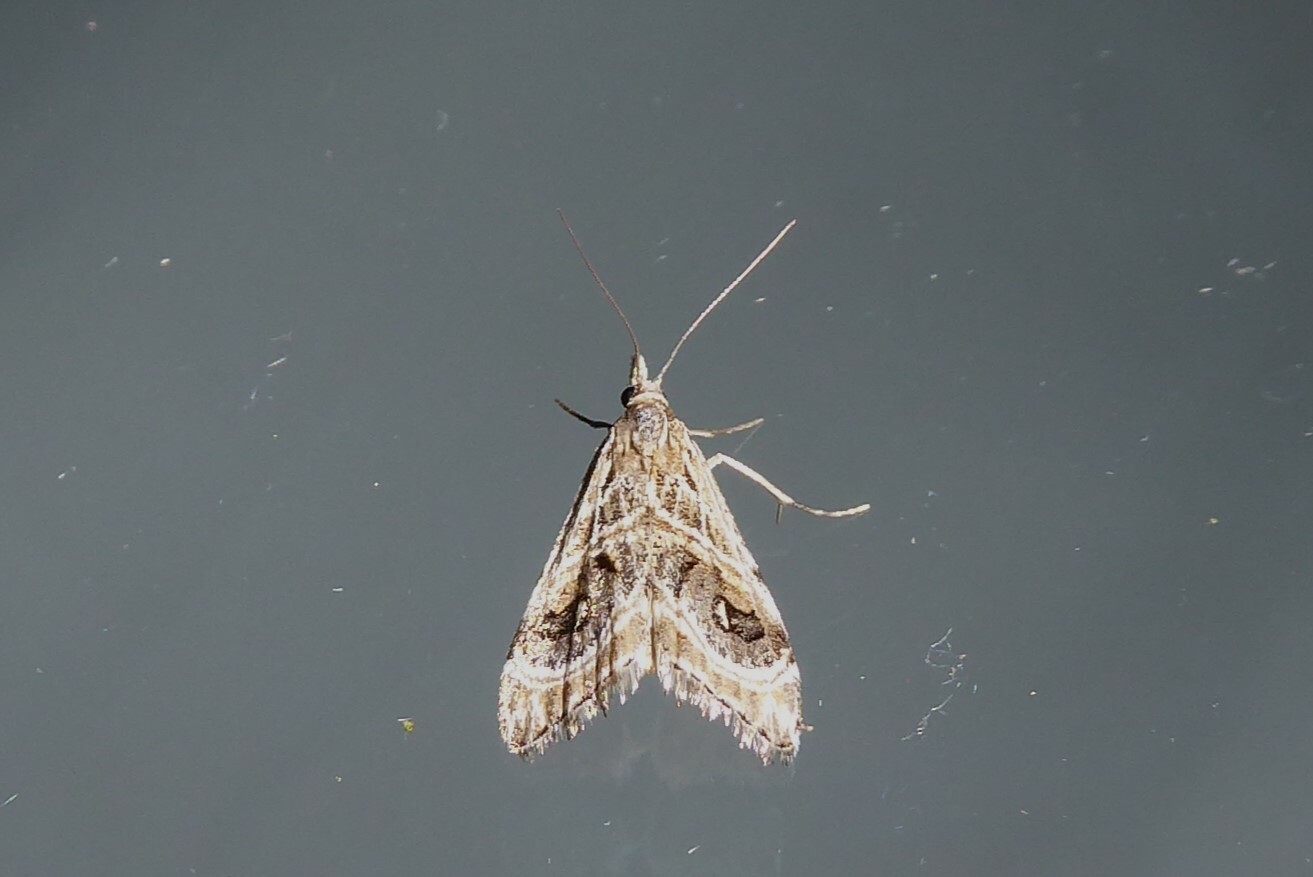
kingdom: Animalia
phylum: Arthropoda
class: Insecta
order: Lepidoptera
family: Crambidae
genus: Gadira
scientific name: Gadira acerella
